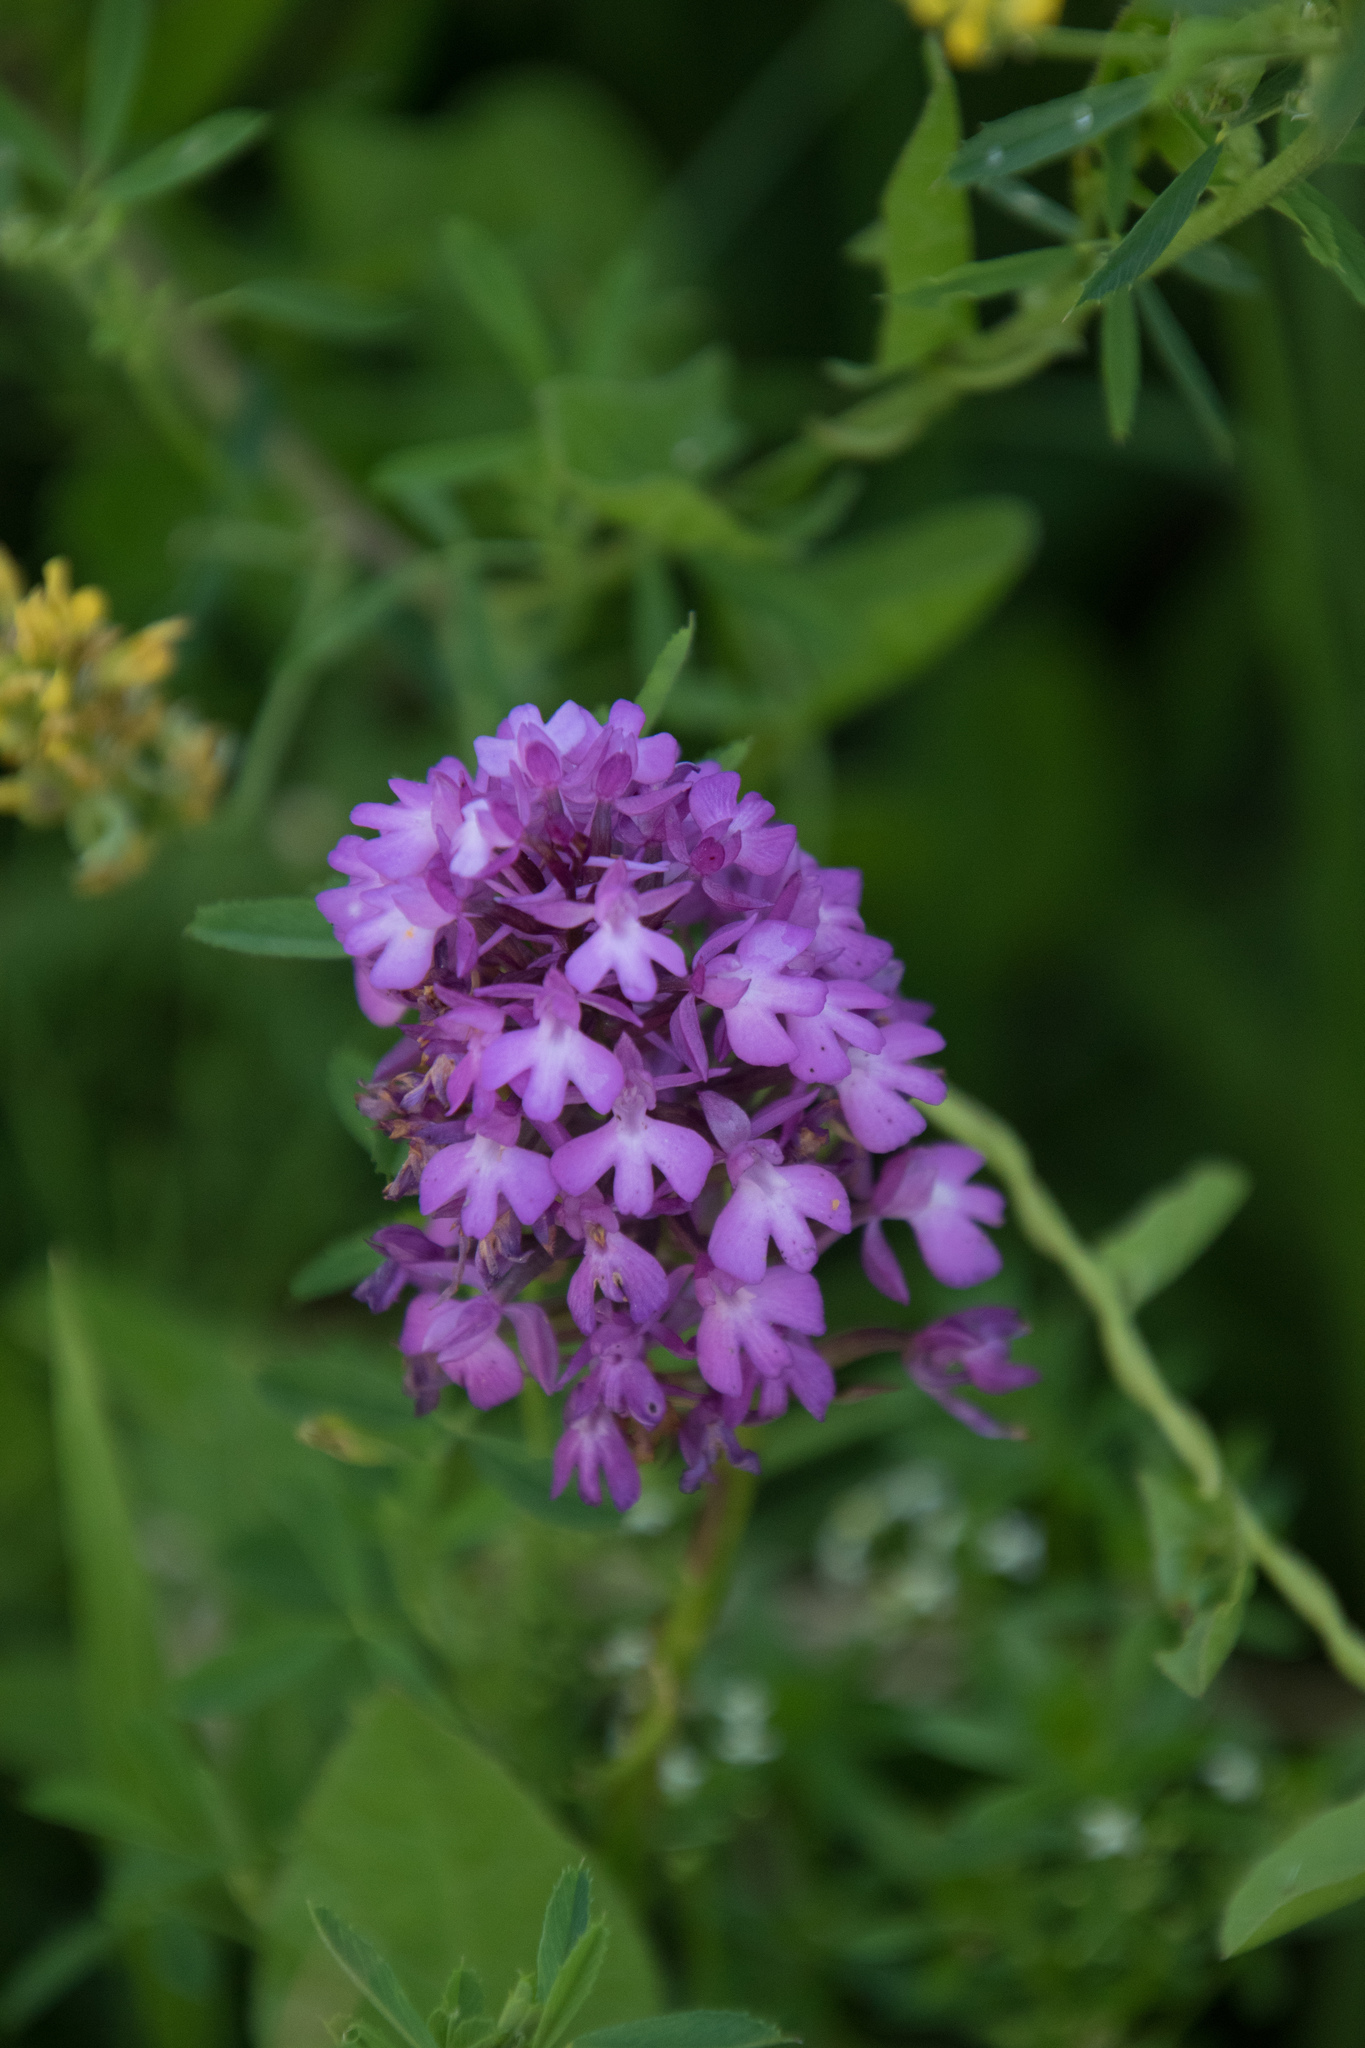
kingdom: Plantae
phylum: Tracheophyta
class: Liliopsida
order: Asparagales
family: Orchidaceae
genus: Anacamptis
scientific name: Anacamptis pyramidalis
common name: Pyramidal orchid
